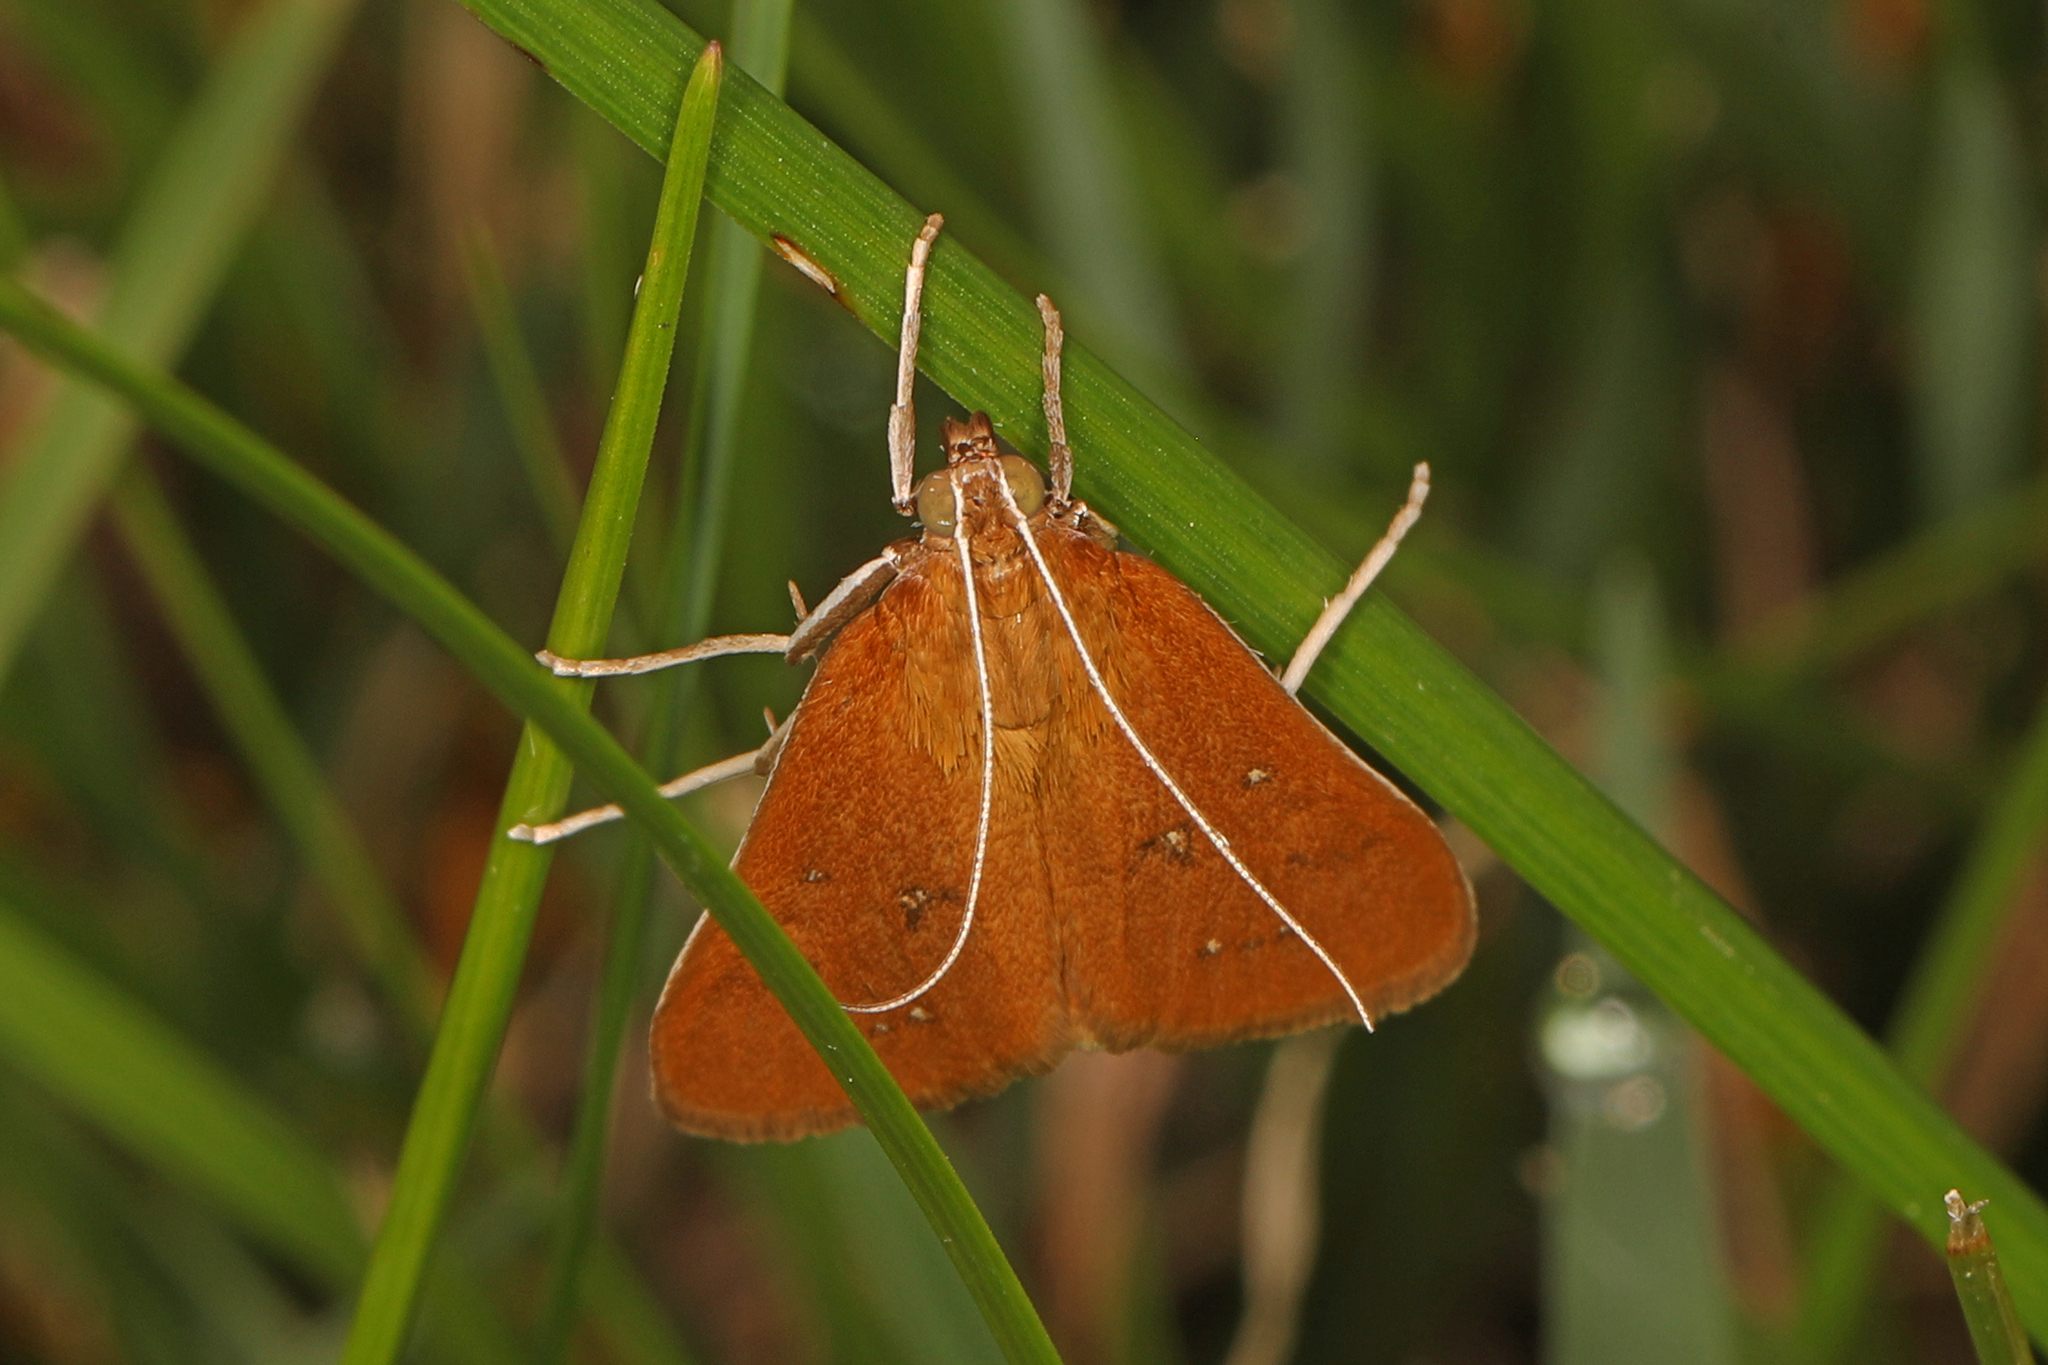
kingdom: Animalia
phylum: Arthropoda
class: Insecta
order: Lepidoptera
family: Crambidae
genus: Diastictis
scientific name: Diastictis ventralis
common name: White-spotted brown
